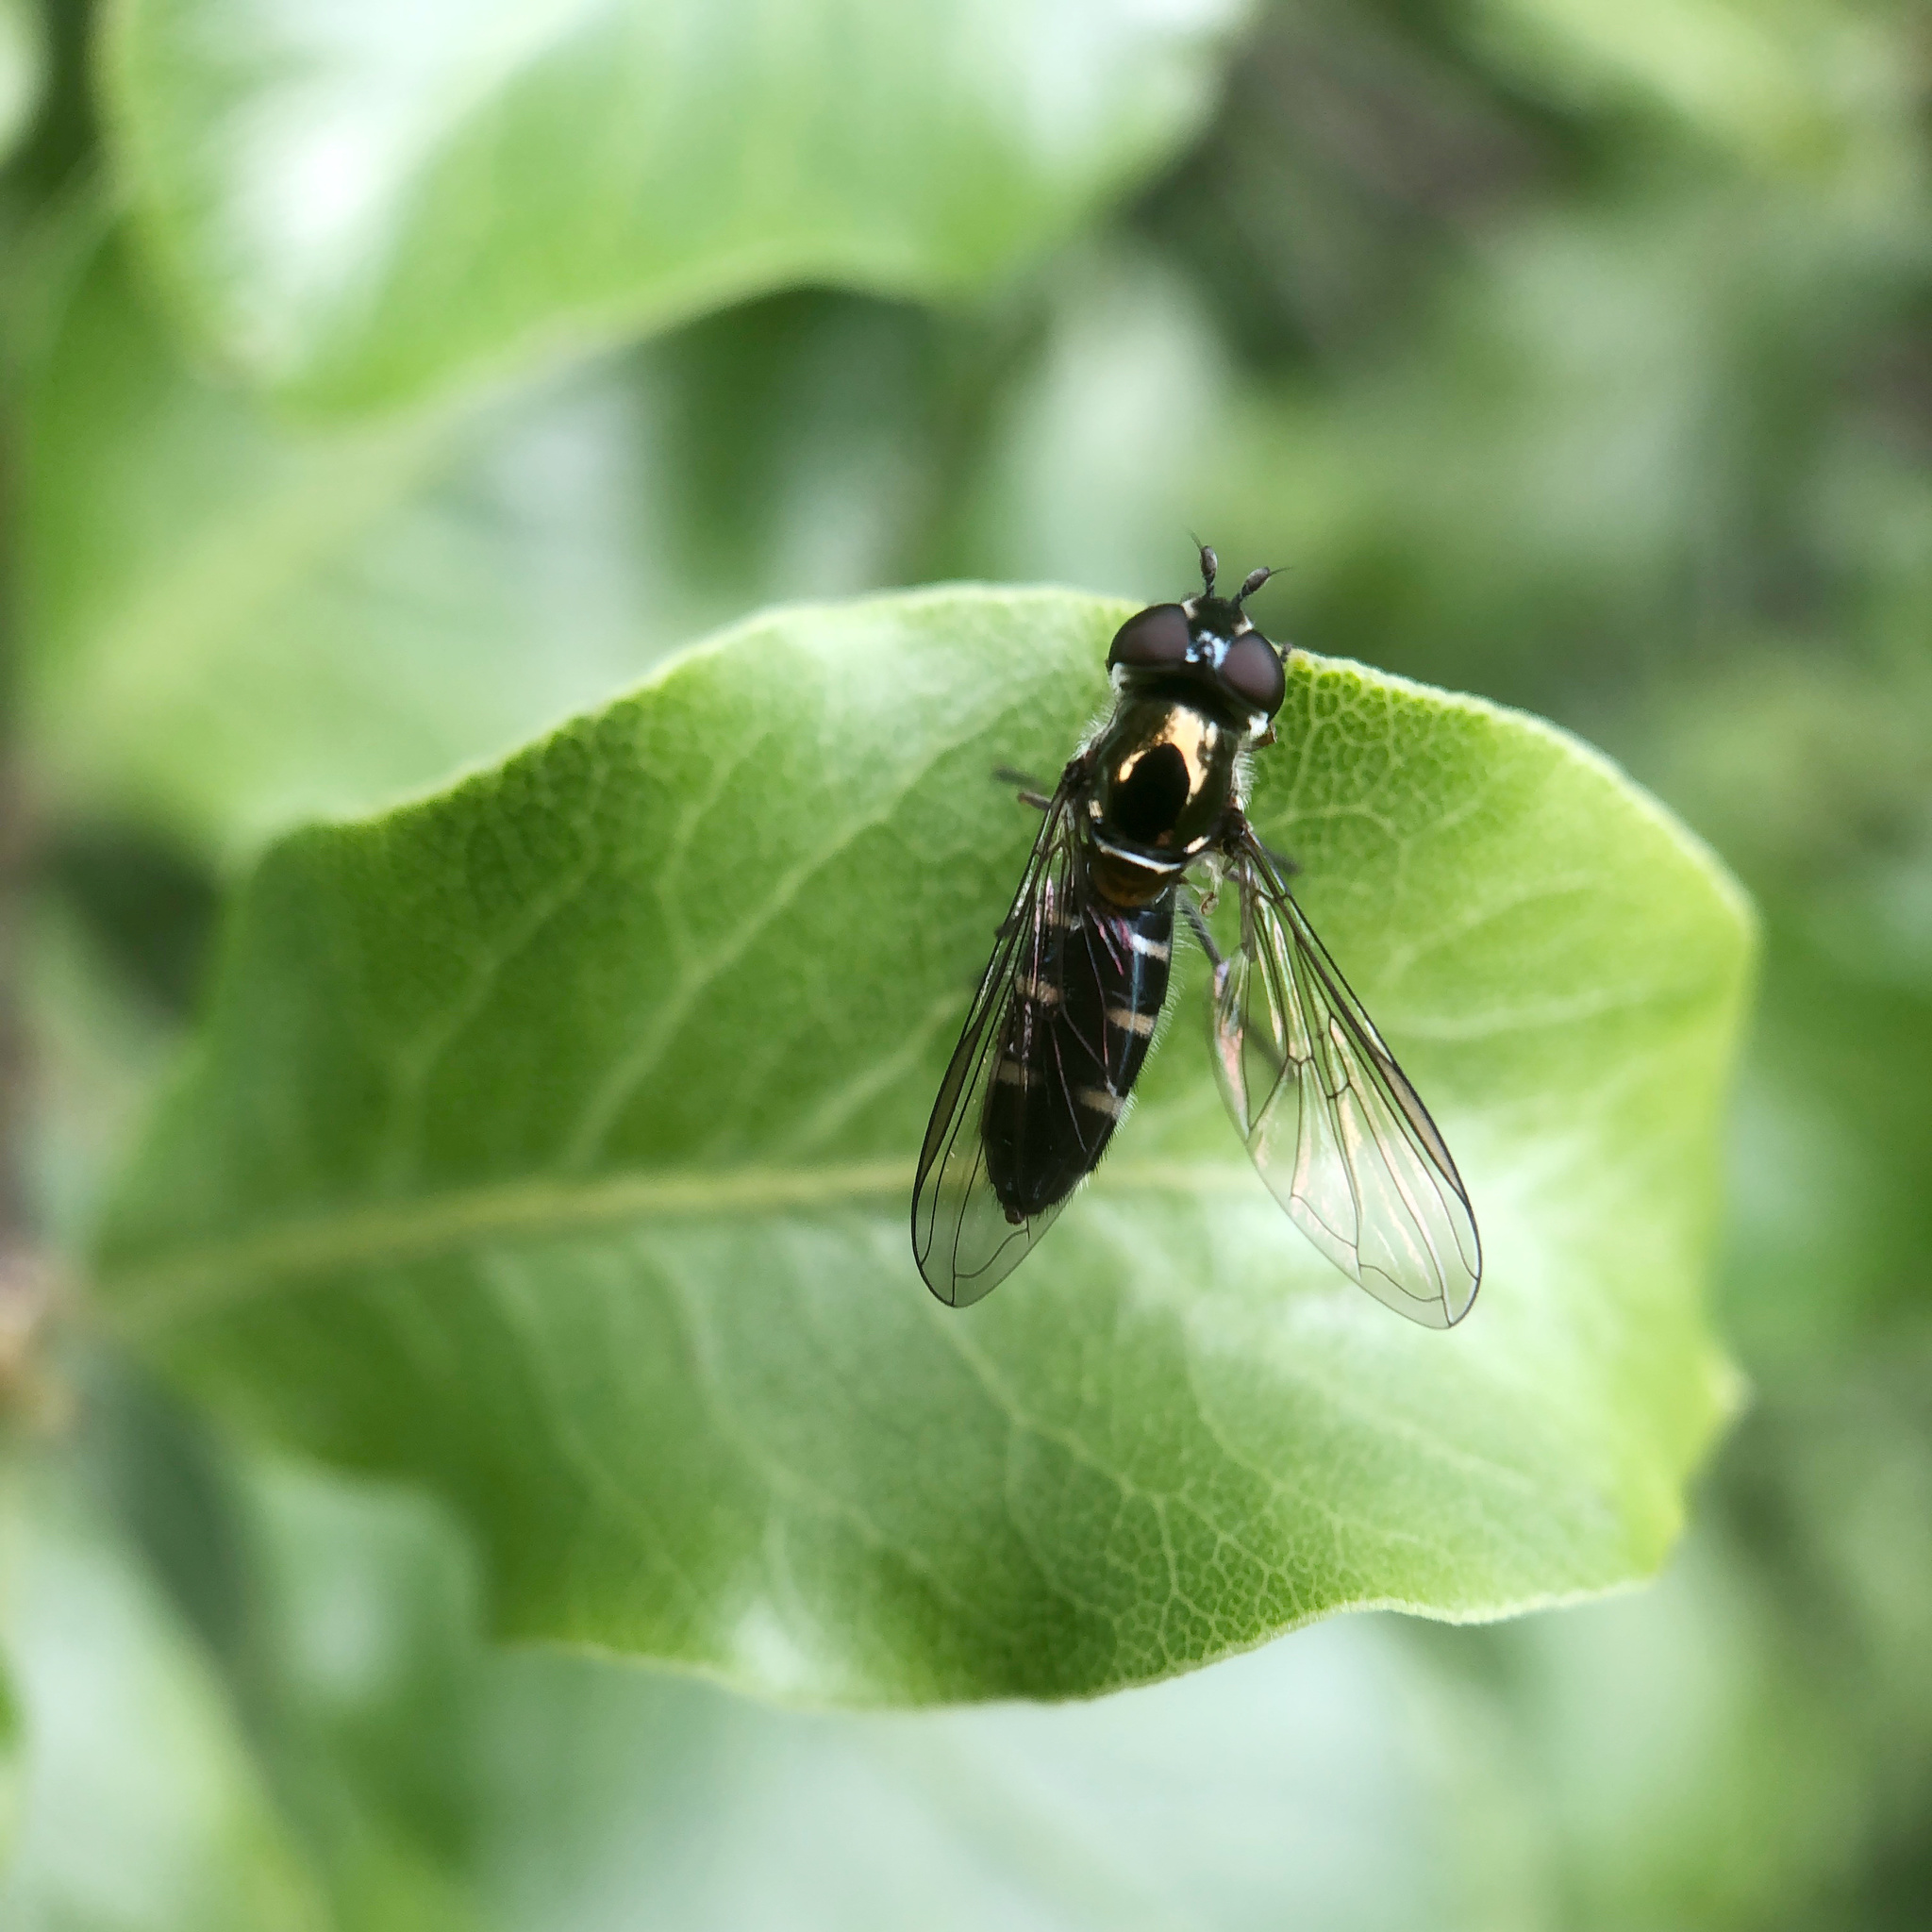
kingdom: Animalia
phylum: Arthropoda
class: Insecta
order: Diptera
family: Syrphidae
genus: Melangyna
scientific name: Melangyna novaezelandiae
